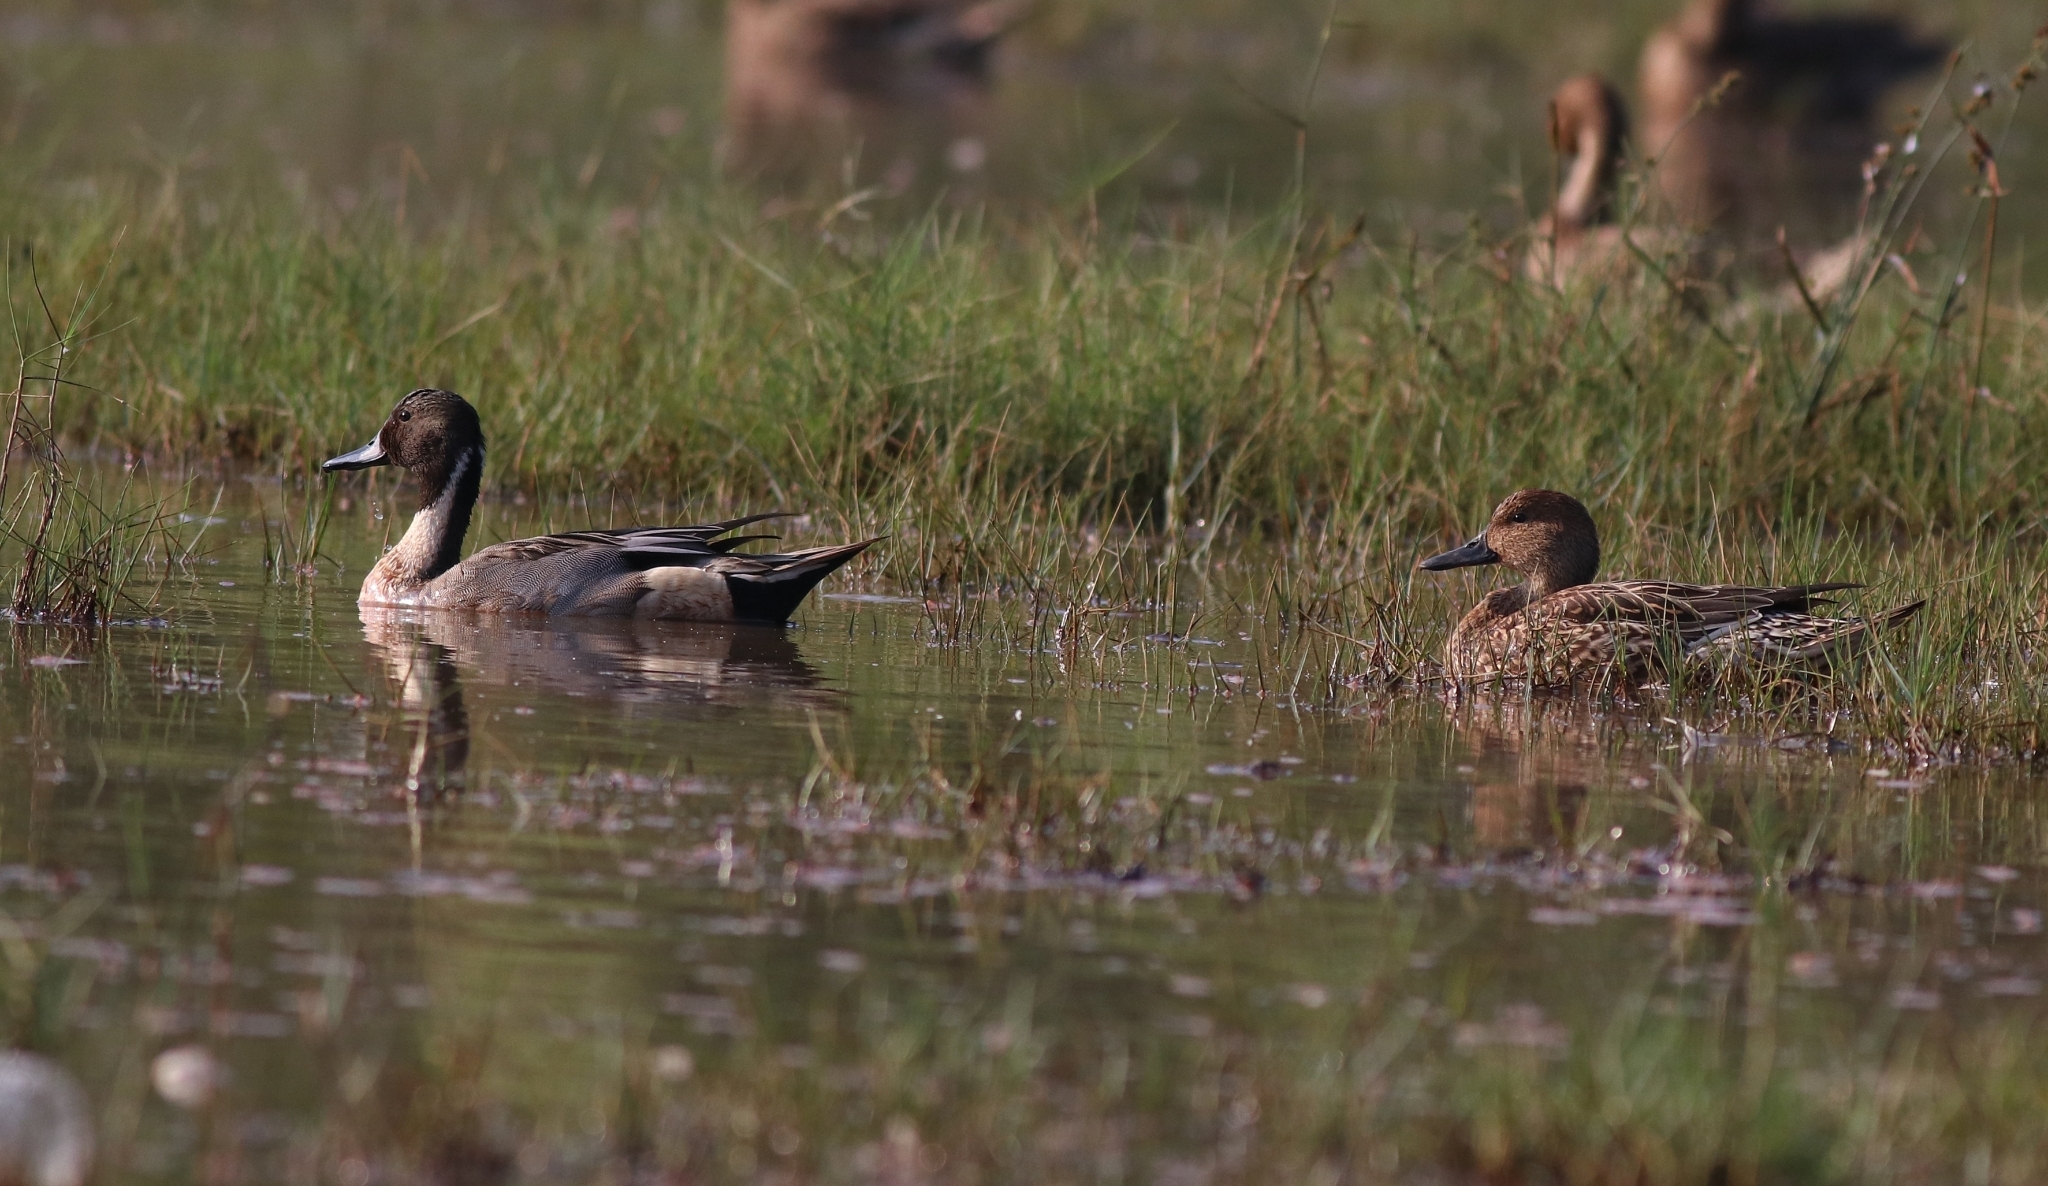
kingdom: Animalia
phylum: Chordata
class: Aves
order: Anseriformes
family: Anatidae
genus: Anas
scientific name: Anas acuta
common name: Northern pintail
